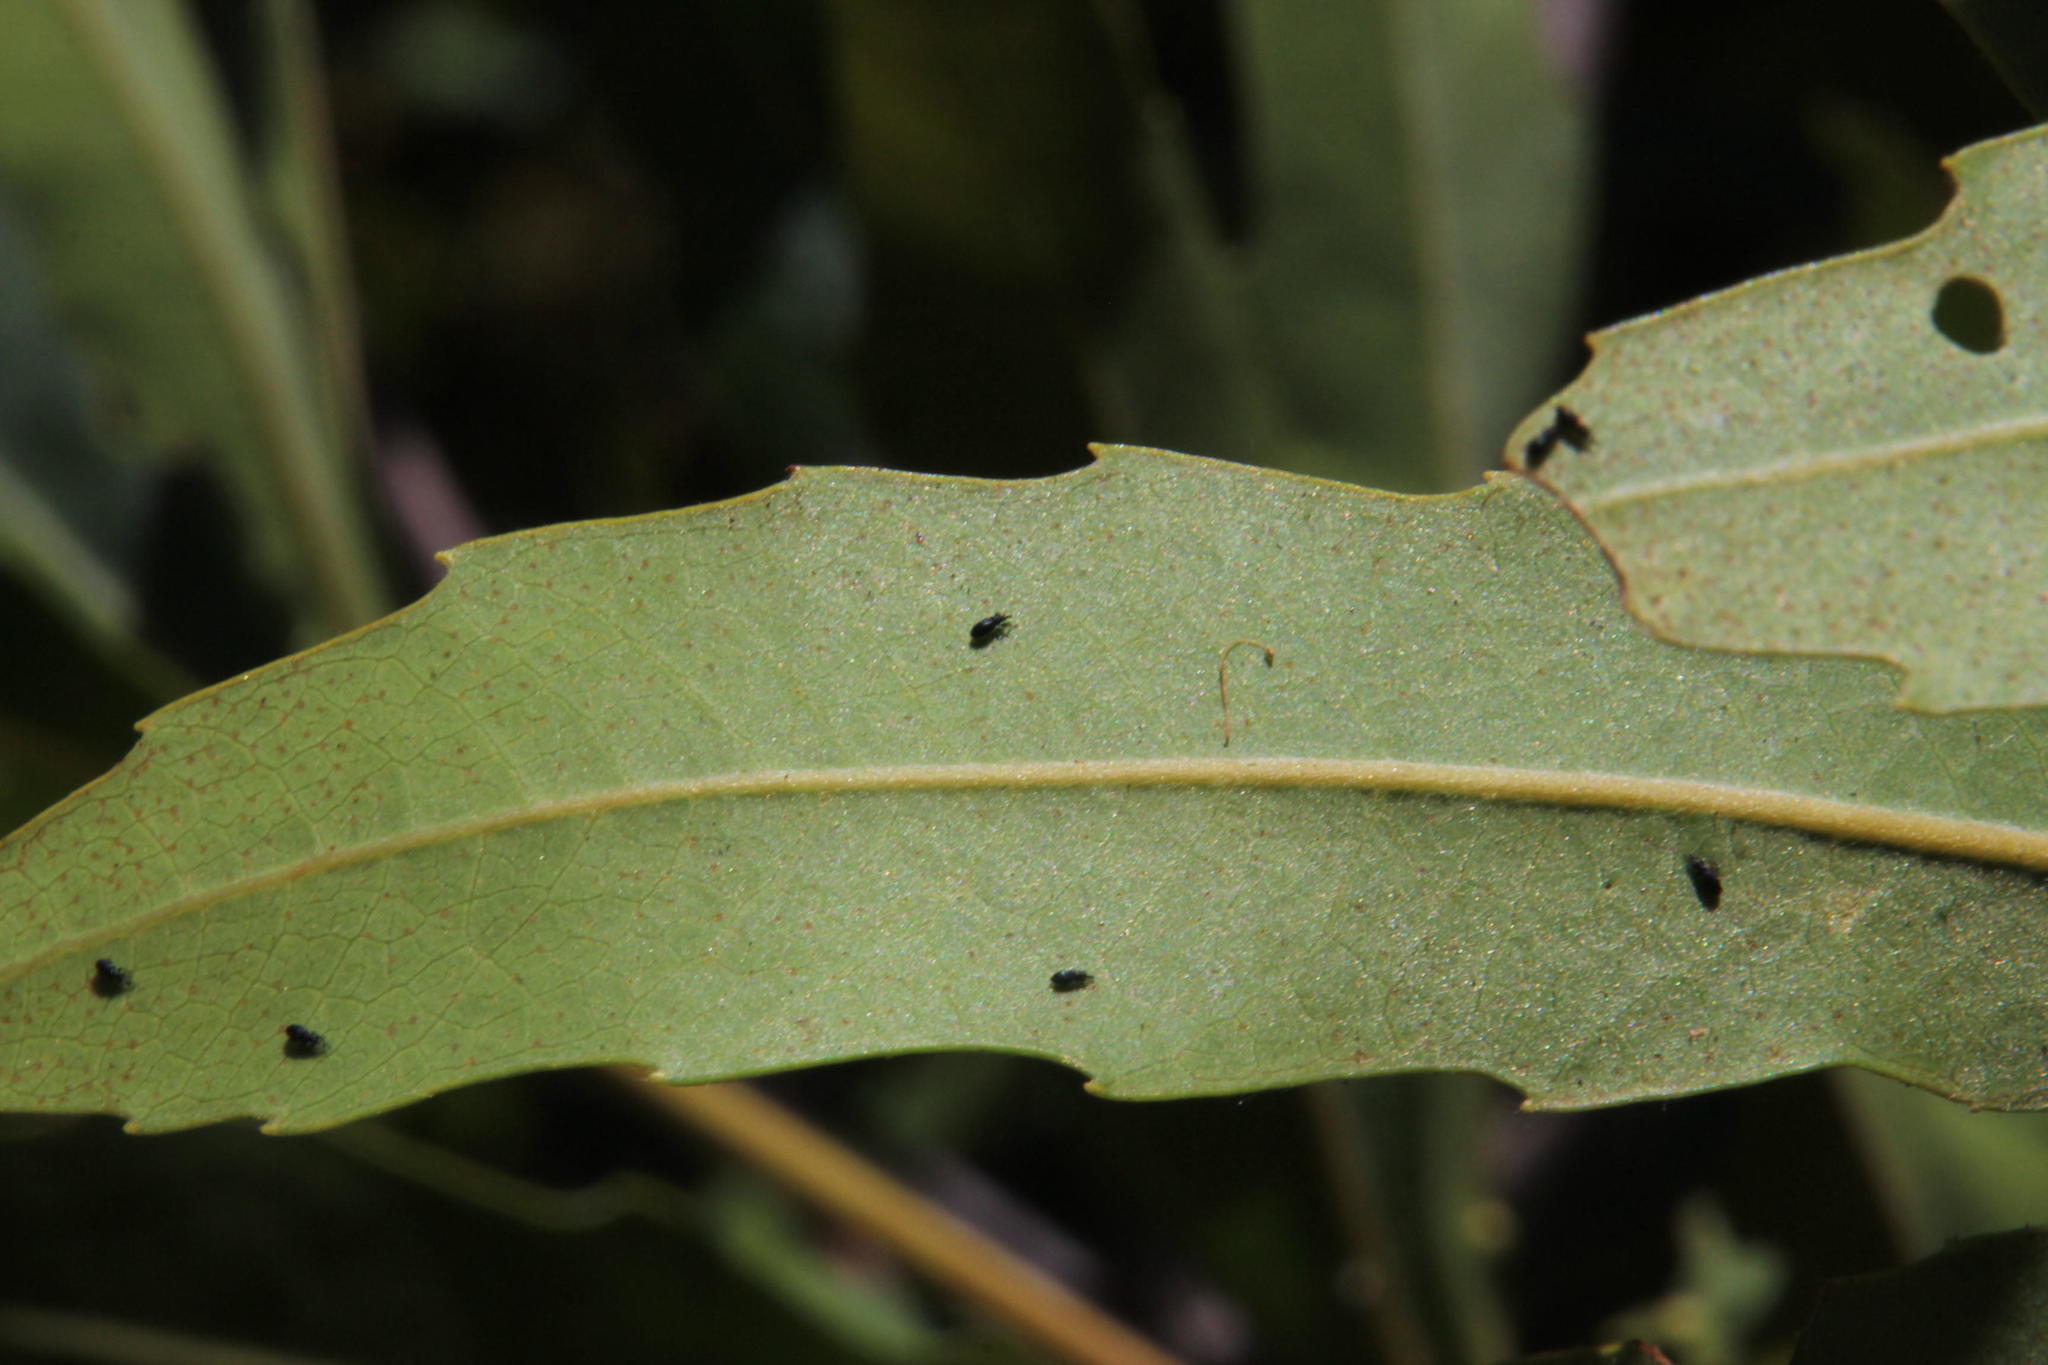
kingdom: Animalia
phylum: Arthropoda
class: Insecta
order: Coleoptera
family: Brentidae
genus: Setapion
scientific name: Setapion
